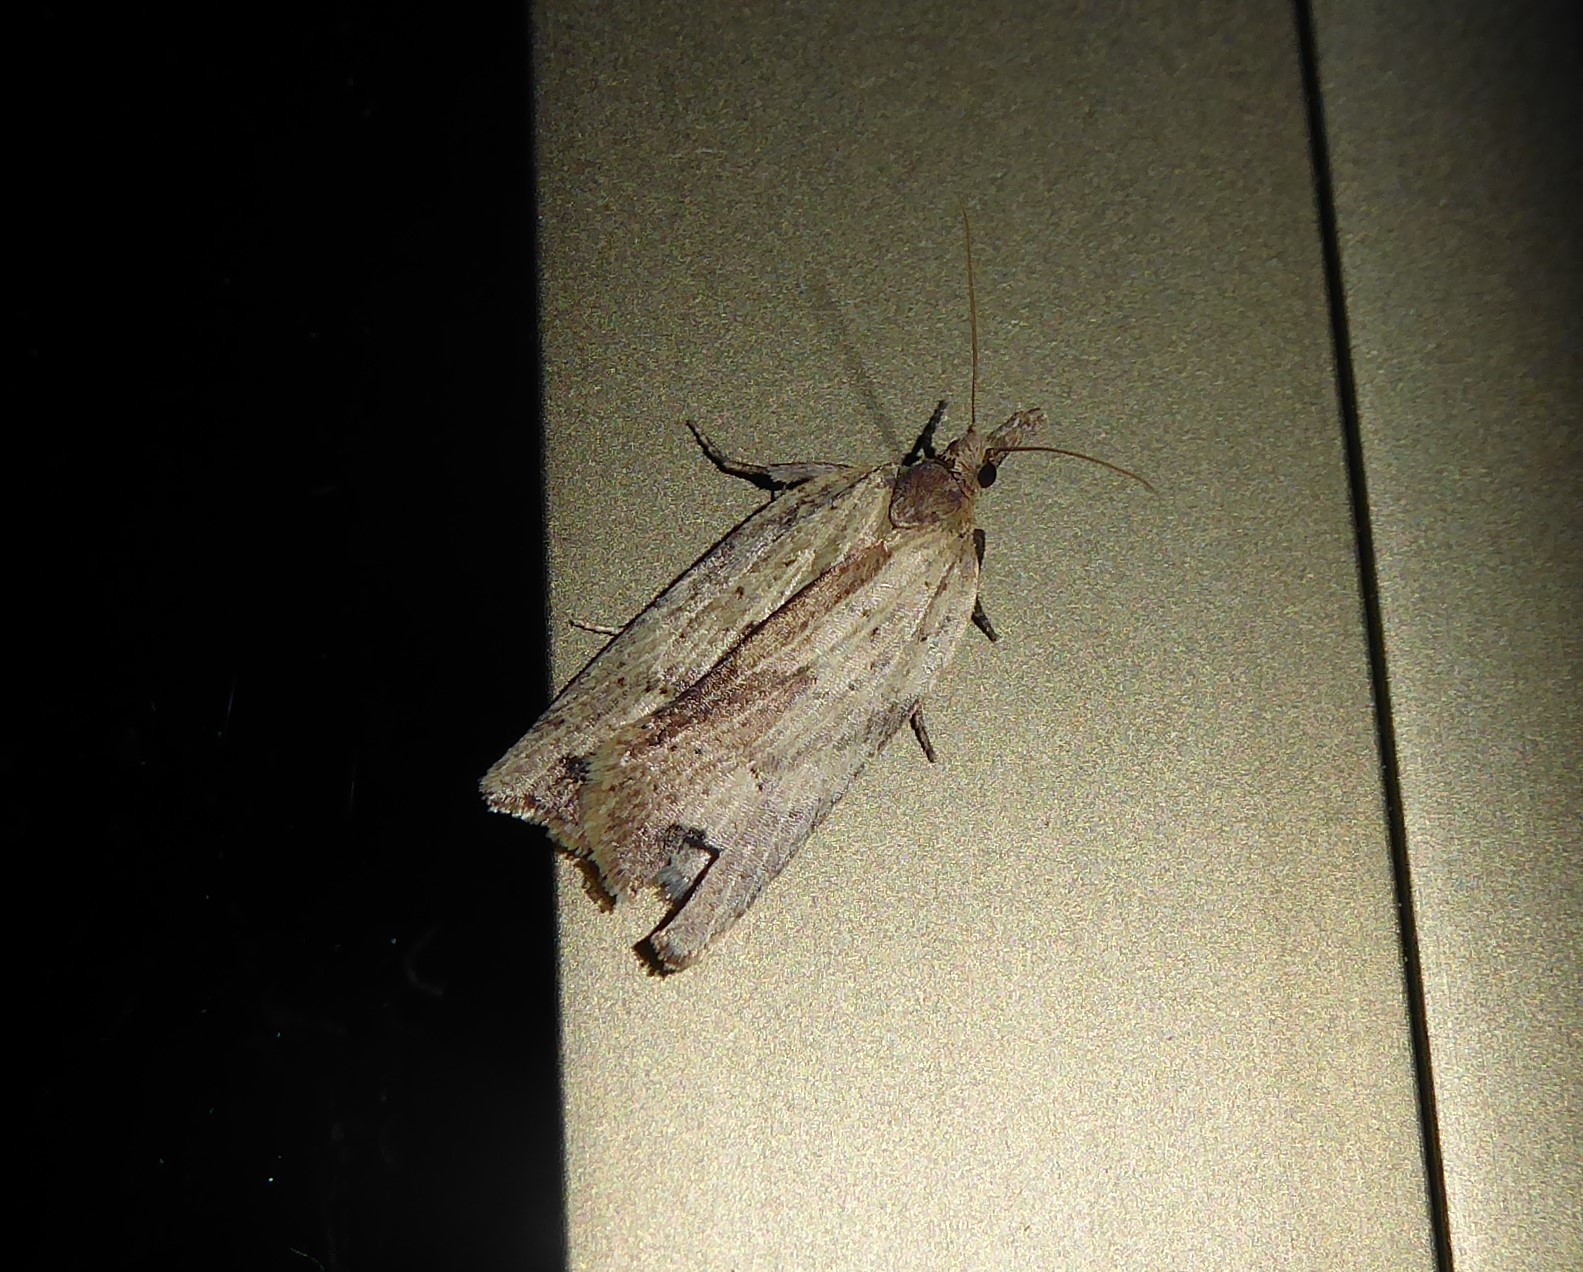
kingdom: Animalia
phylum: Arthropoda
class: Insecta
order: Lepidoptera
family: Tortricidae
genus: Planotortrix
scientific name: Planotortrix notophaea
